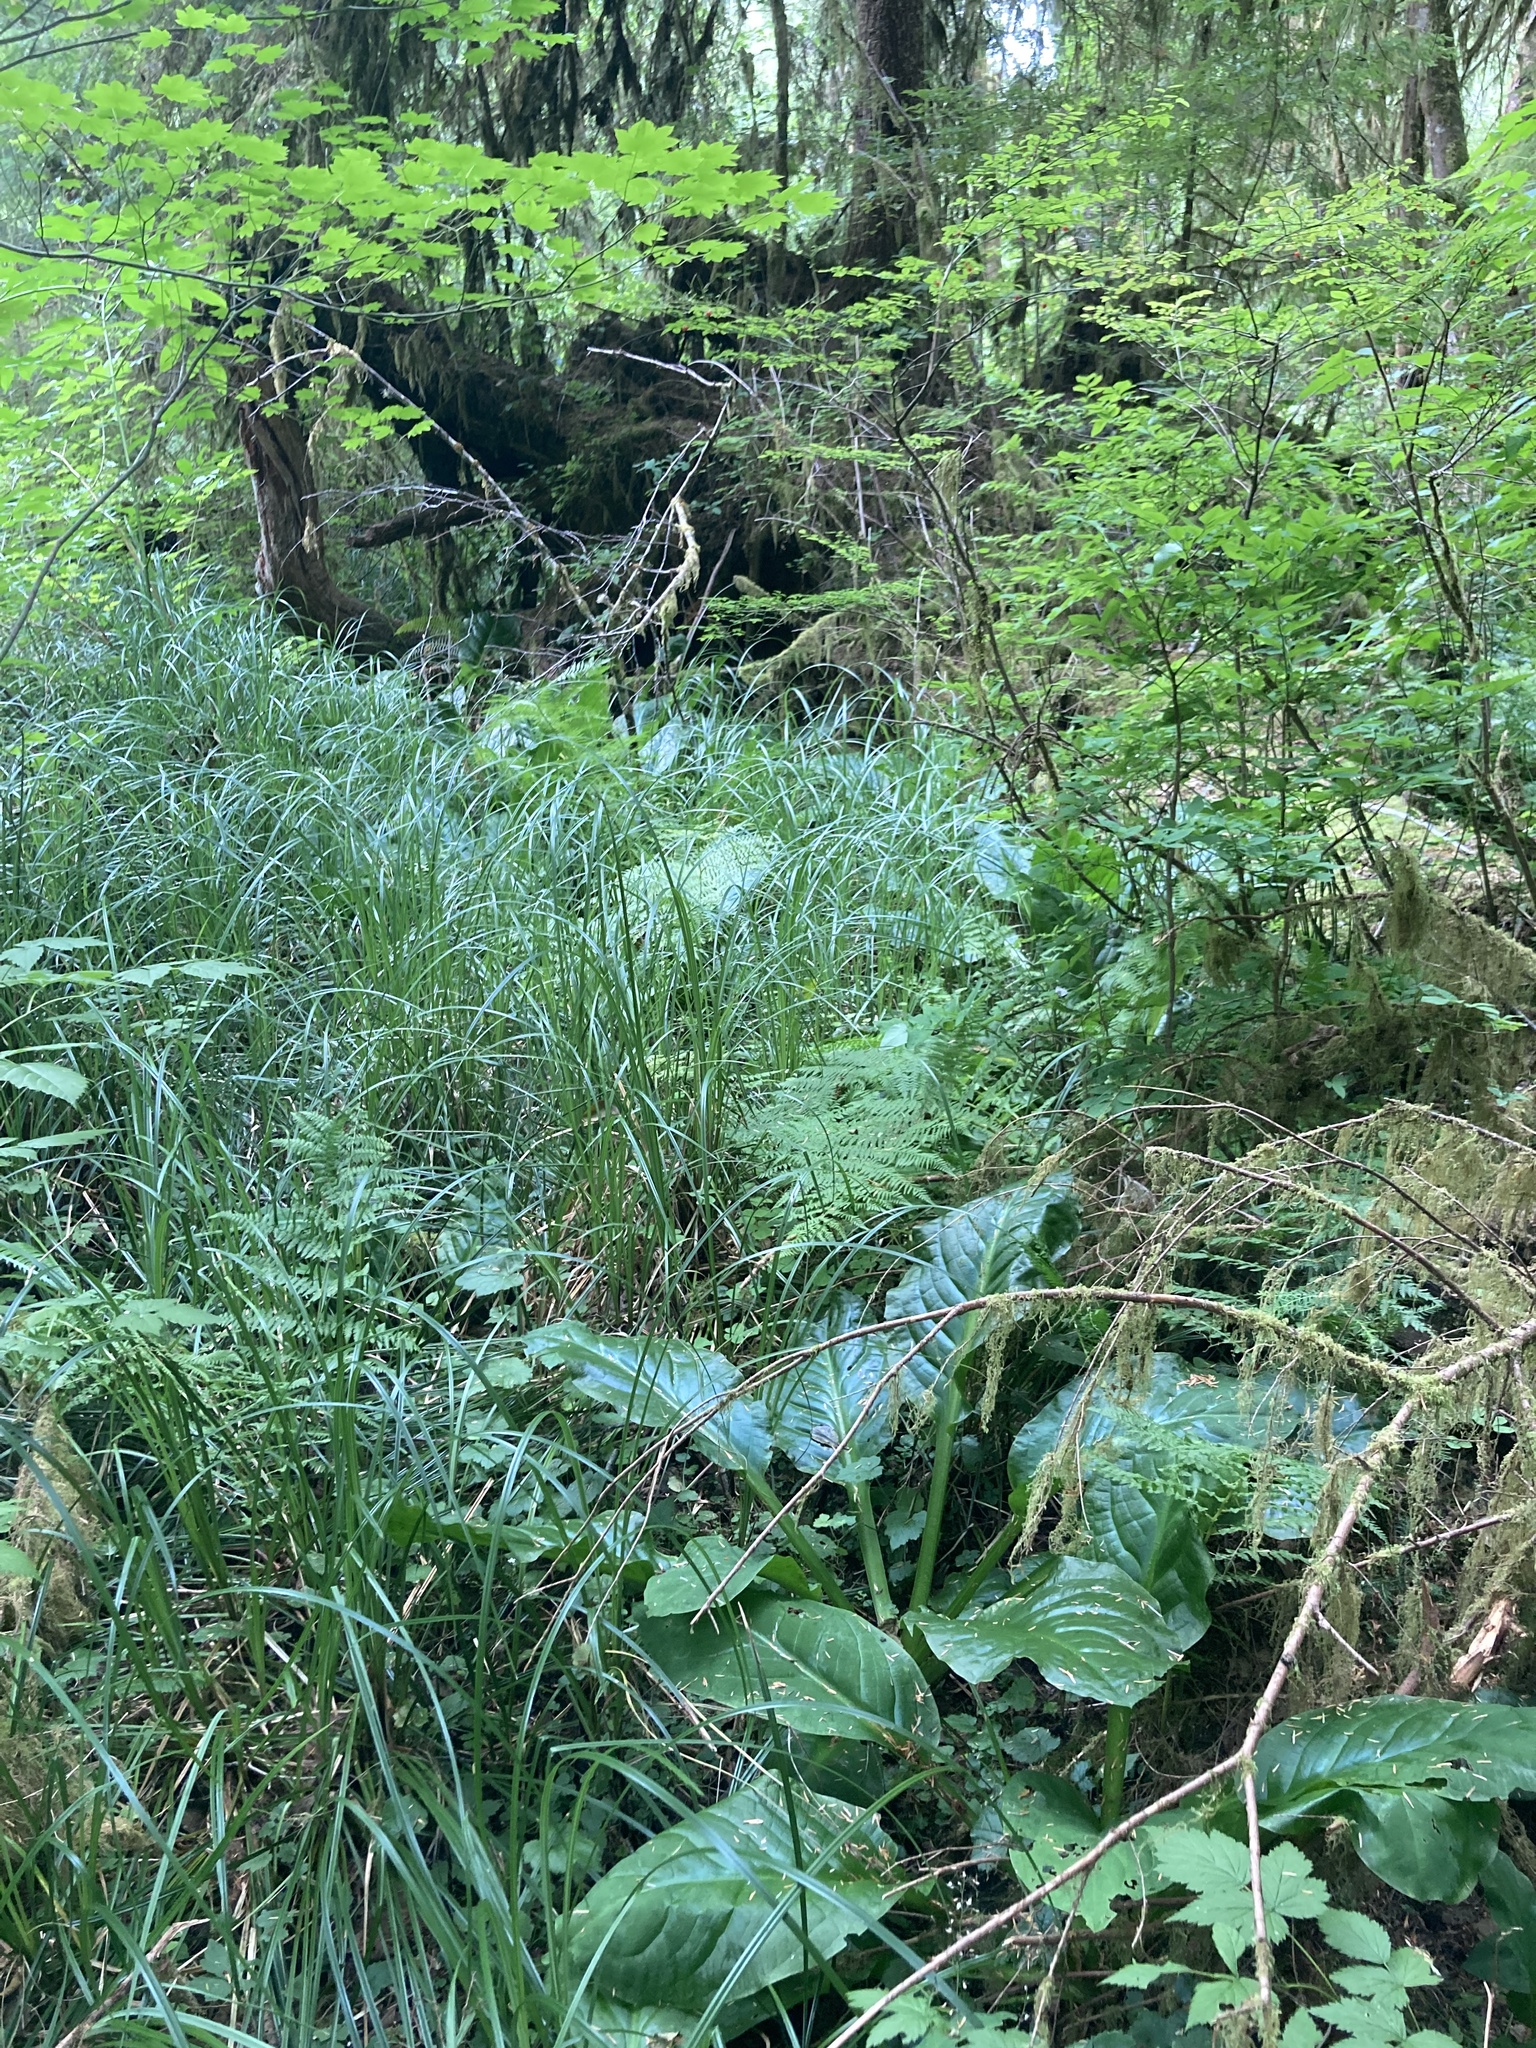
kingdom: Plantae
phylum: Tracheophyta
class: Liliopsida
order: Alismatales
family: Araceae
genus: Lysichiton
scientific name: Lysichiton americanus
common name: American skunk cabbage
